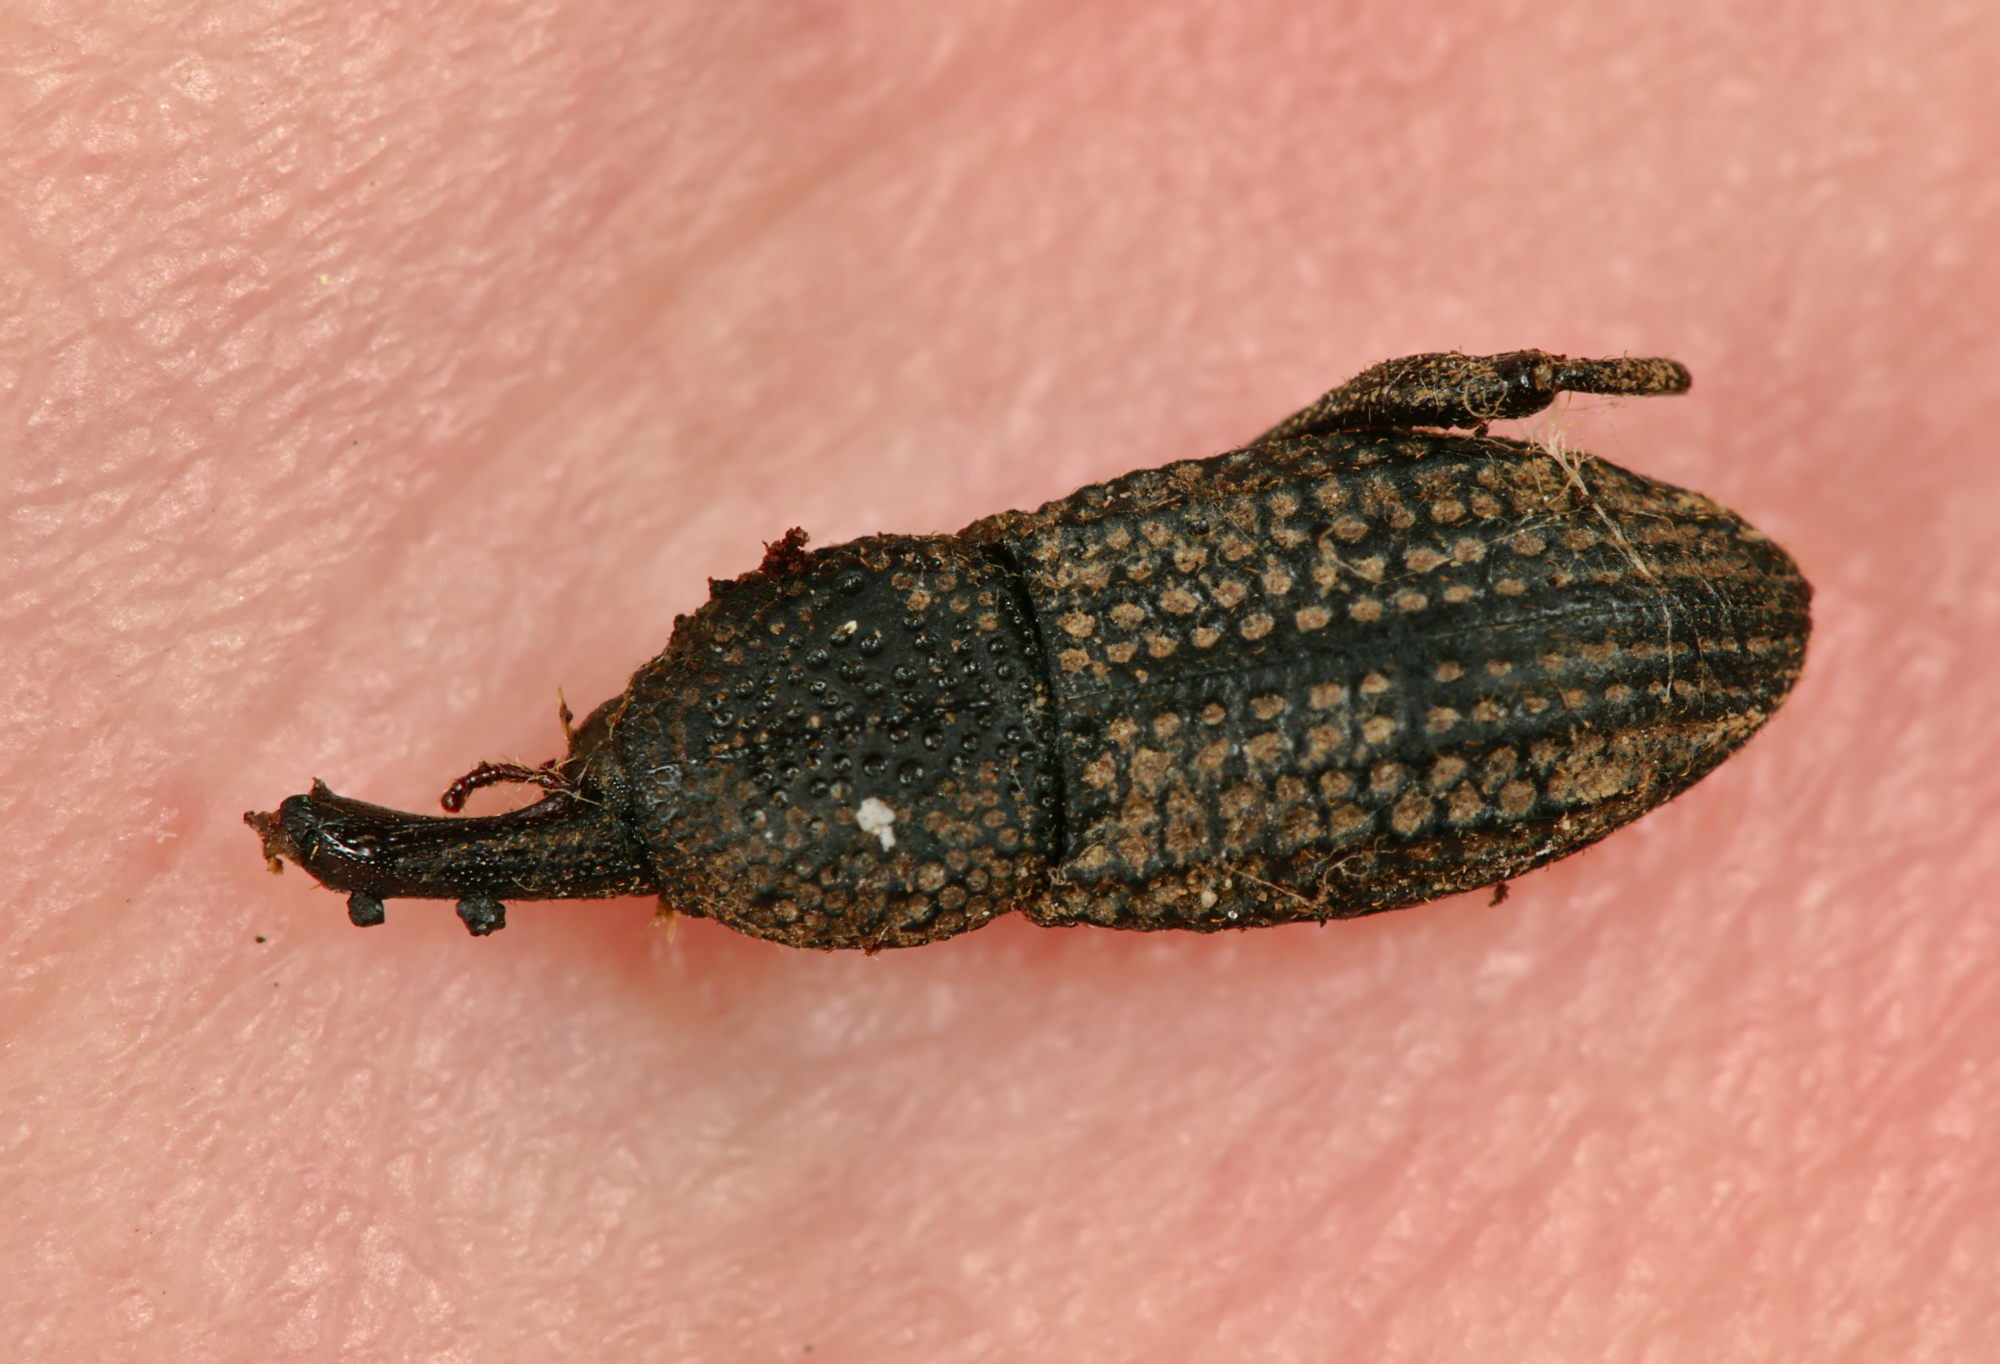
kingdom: Animalia
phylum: Arthropoda
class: Insecta
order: Coleoptera
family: Curculionidae
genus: Mitoplinthus
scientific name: Mitoplinthus caliginosus
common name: Hop root weevil
